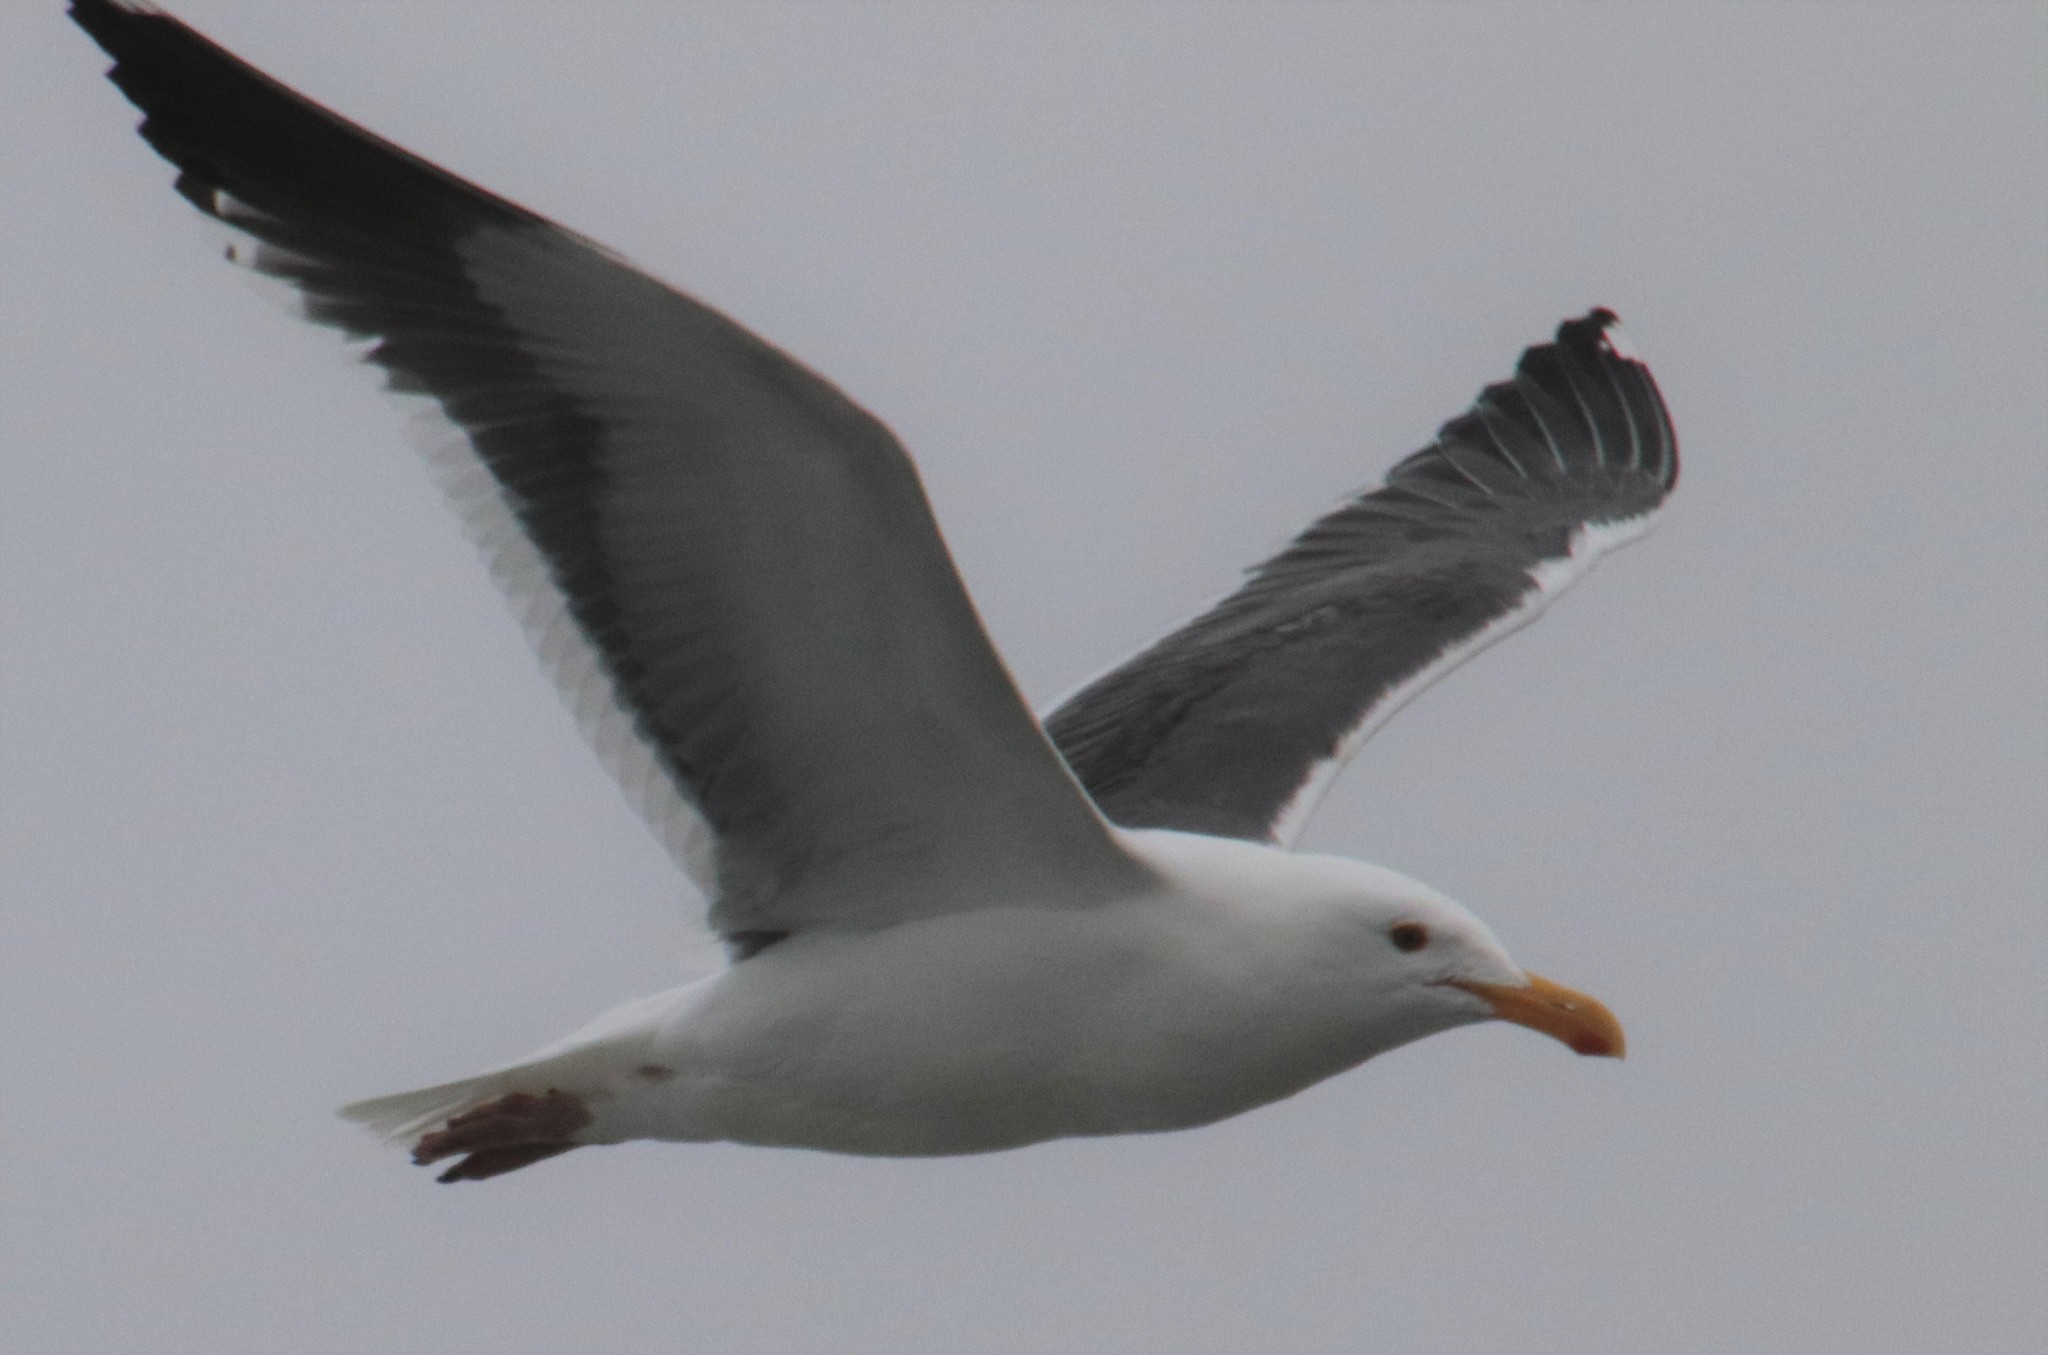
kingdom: Animalia
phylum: Chordata
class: Aves
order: Charadriiformes
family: Laridae
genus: Larus
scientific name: Larus occidentalis
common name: Western gull
